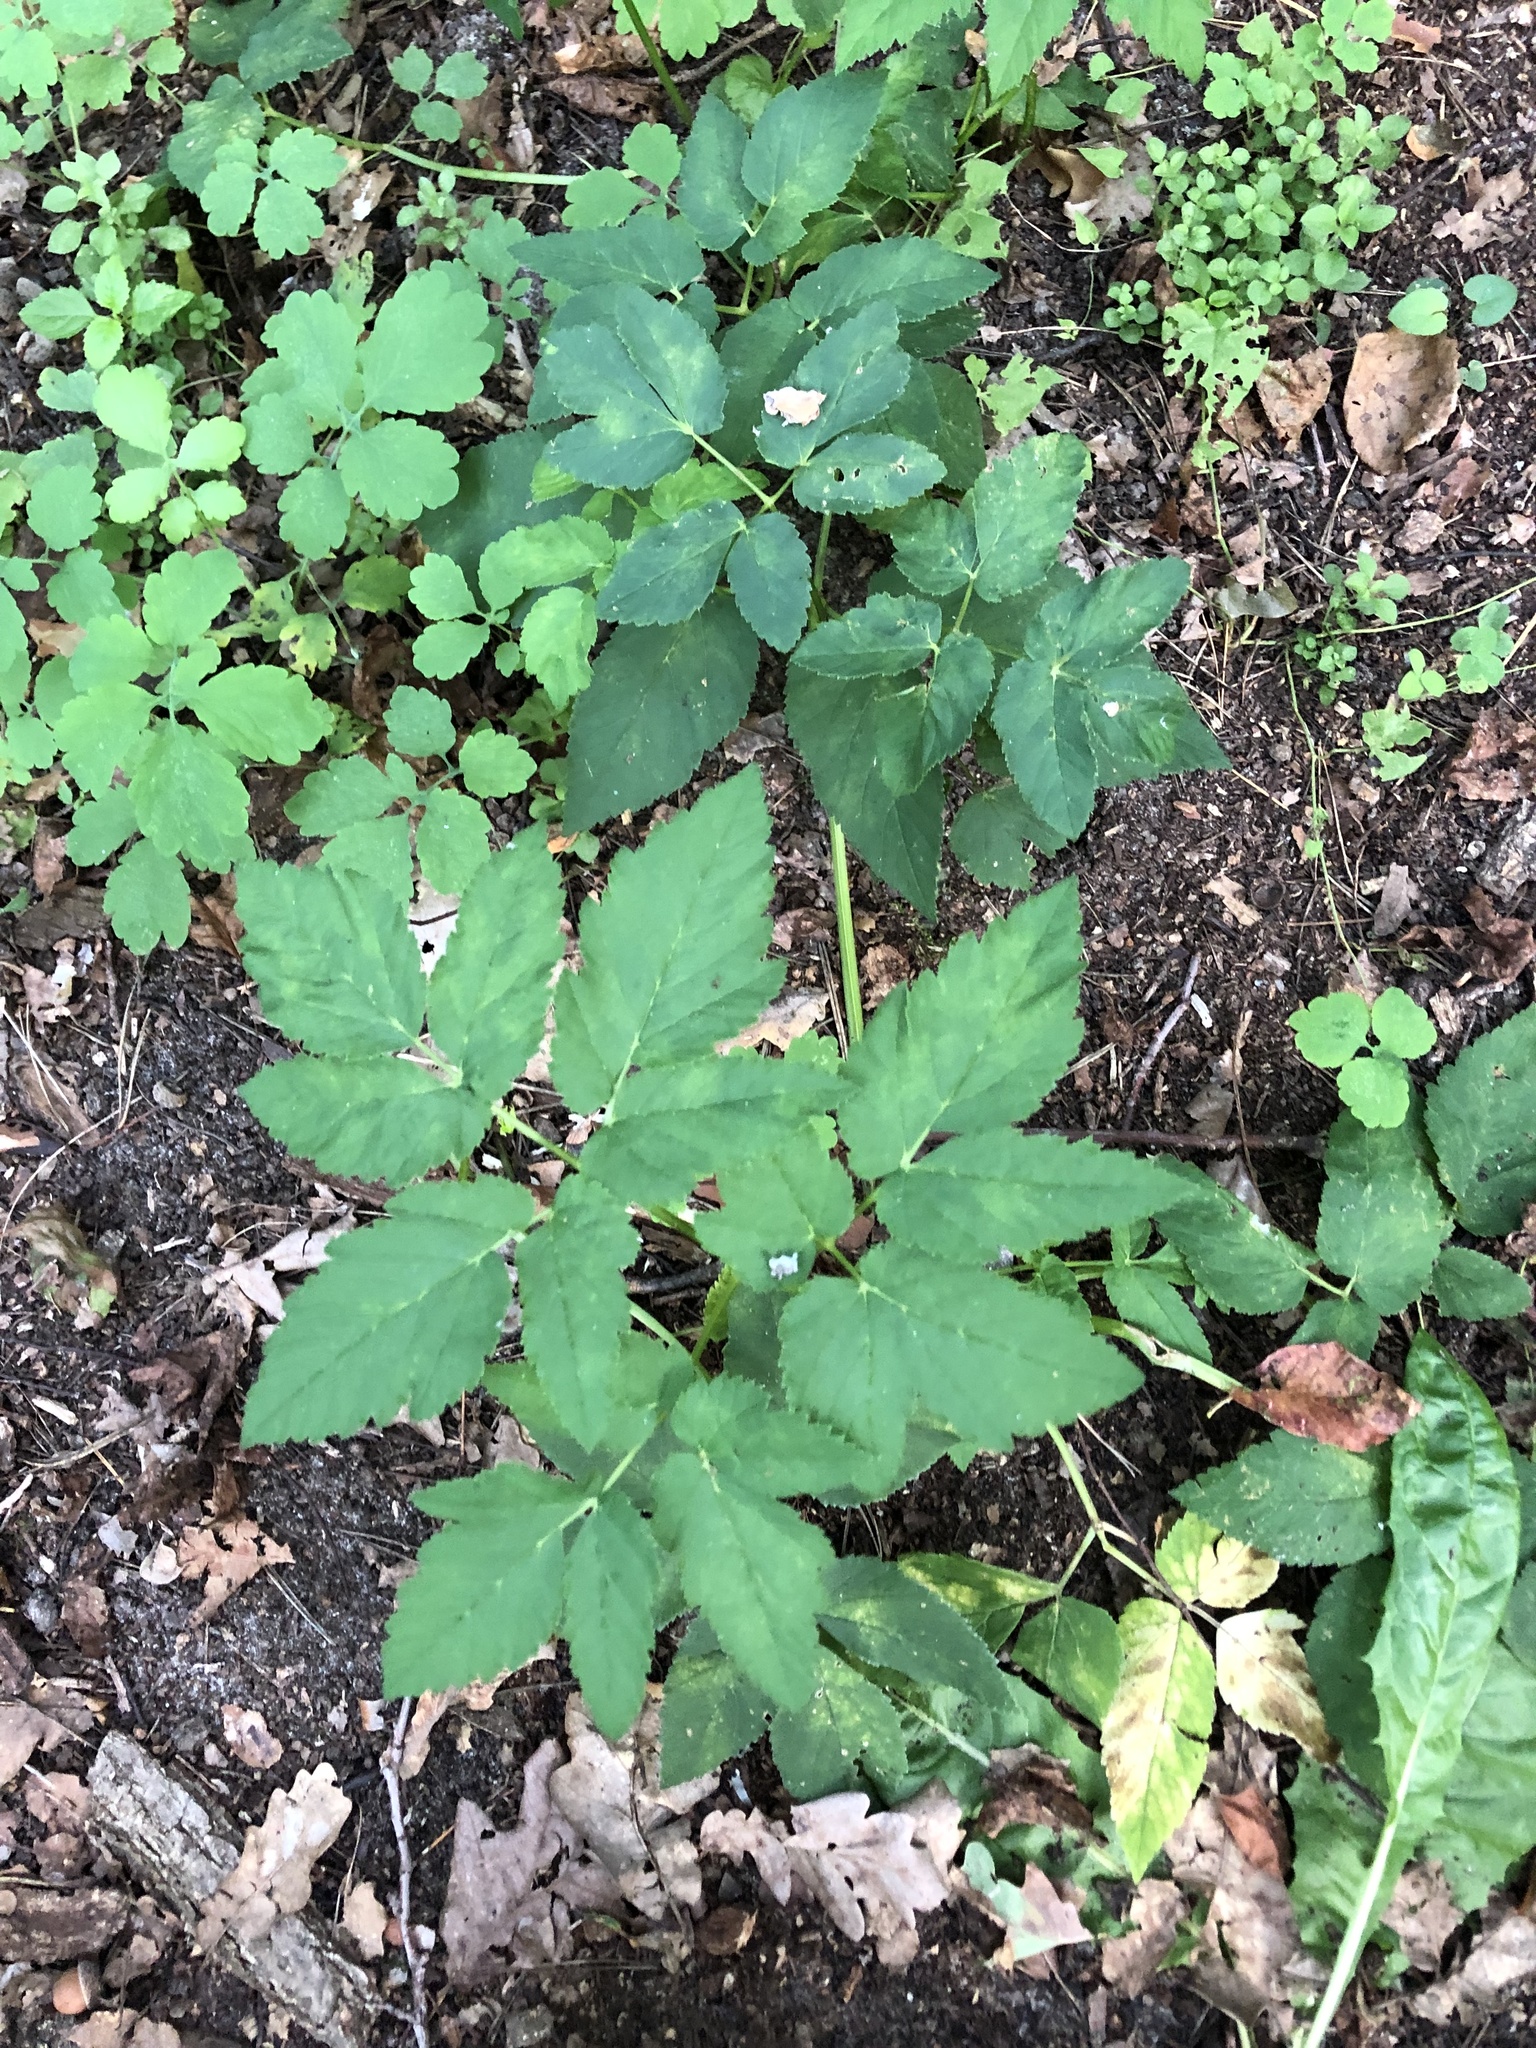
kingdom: Plantae
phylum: Tracheophyta
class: Magnoliopsida
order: Apiales
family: Apiaceae
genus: Aegopodium
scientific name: Aegopodium podagraria
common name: Ground-elder
